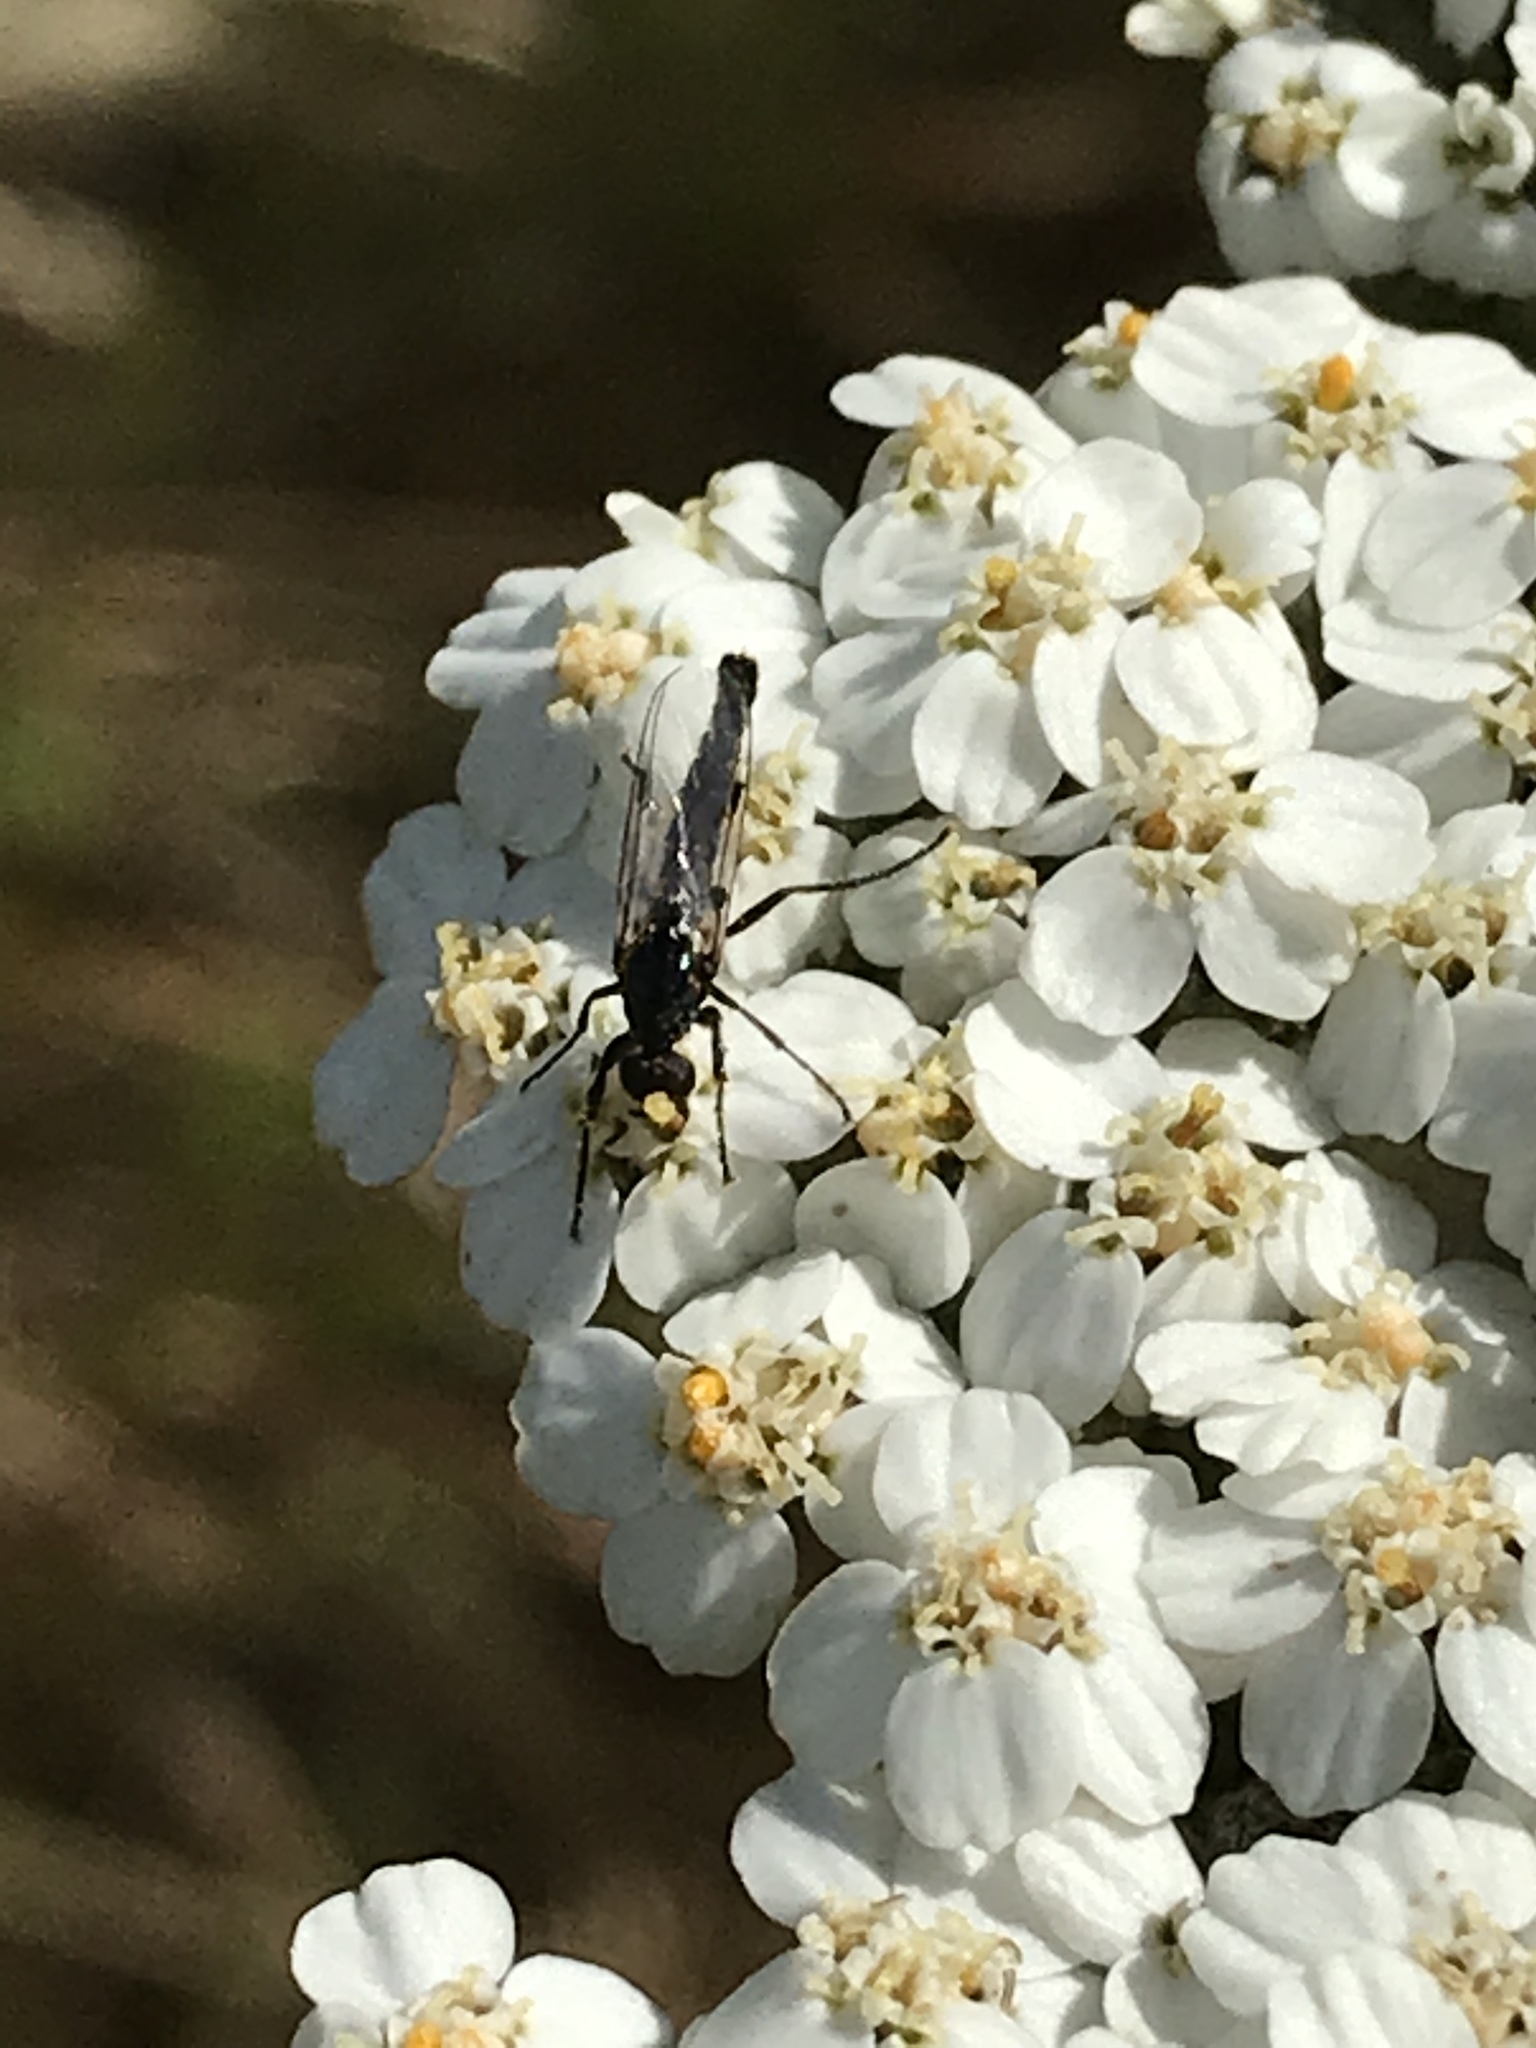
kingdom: Animalia
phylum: Arthropoda
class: Insecta
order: Diptera
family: Bibionidae
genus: Dilophus
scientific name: Dilophus
